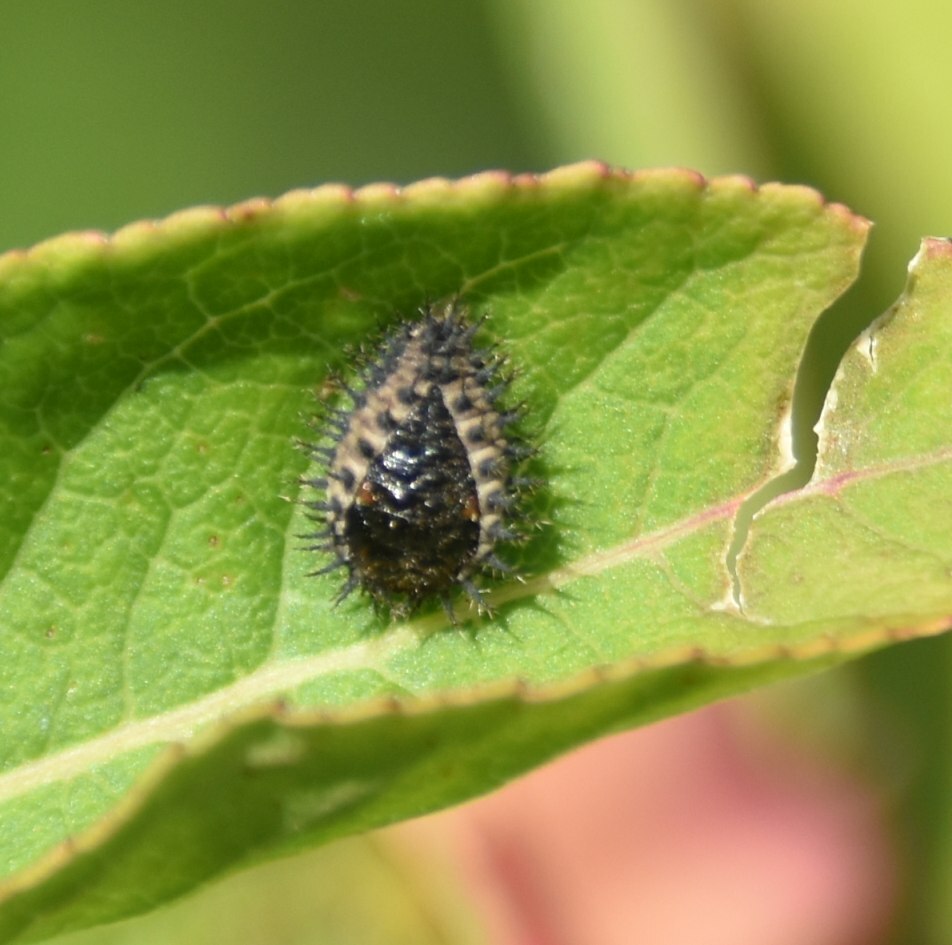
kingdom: Animalia
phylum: Arthropoda
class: Insecta
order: Coleoptera
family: Coccinellidae
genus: Chilocorus
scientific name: Chilocorus renipustulatus
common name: Kidney-spot ladybird
